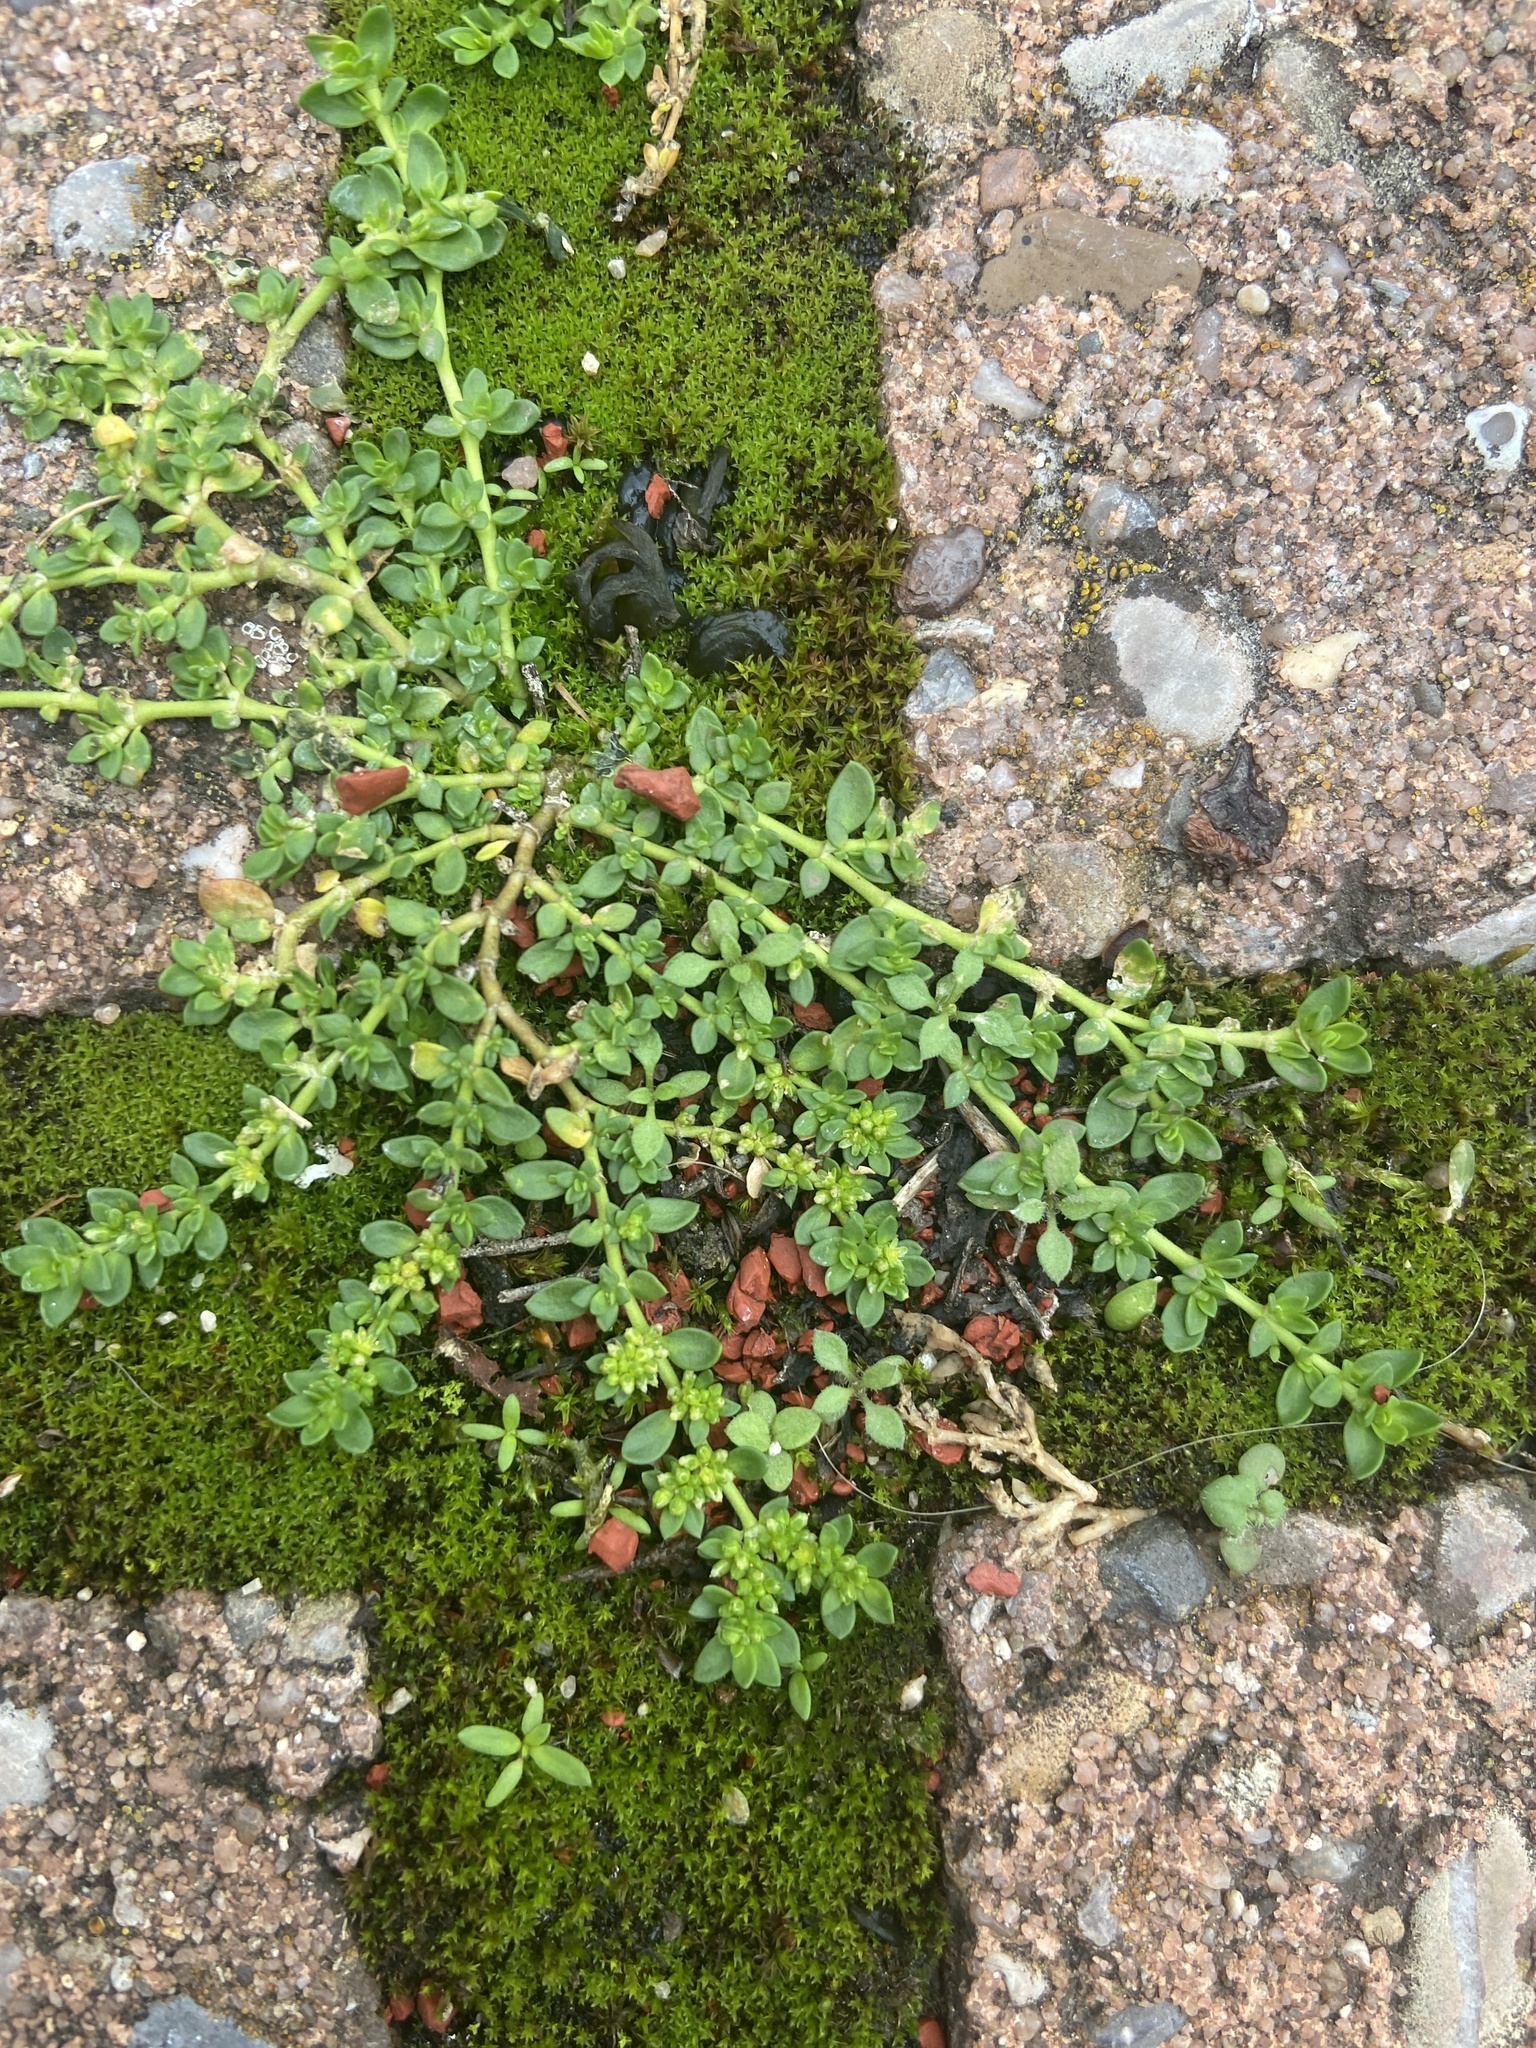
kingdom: Plantae
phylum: Tracheophyta
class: Magnoliopsida
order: Caryophyllales
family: Caryophyllaceae
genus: Herniaria
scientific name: Herniaria glabra
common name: Smooth rupturewort
